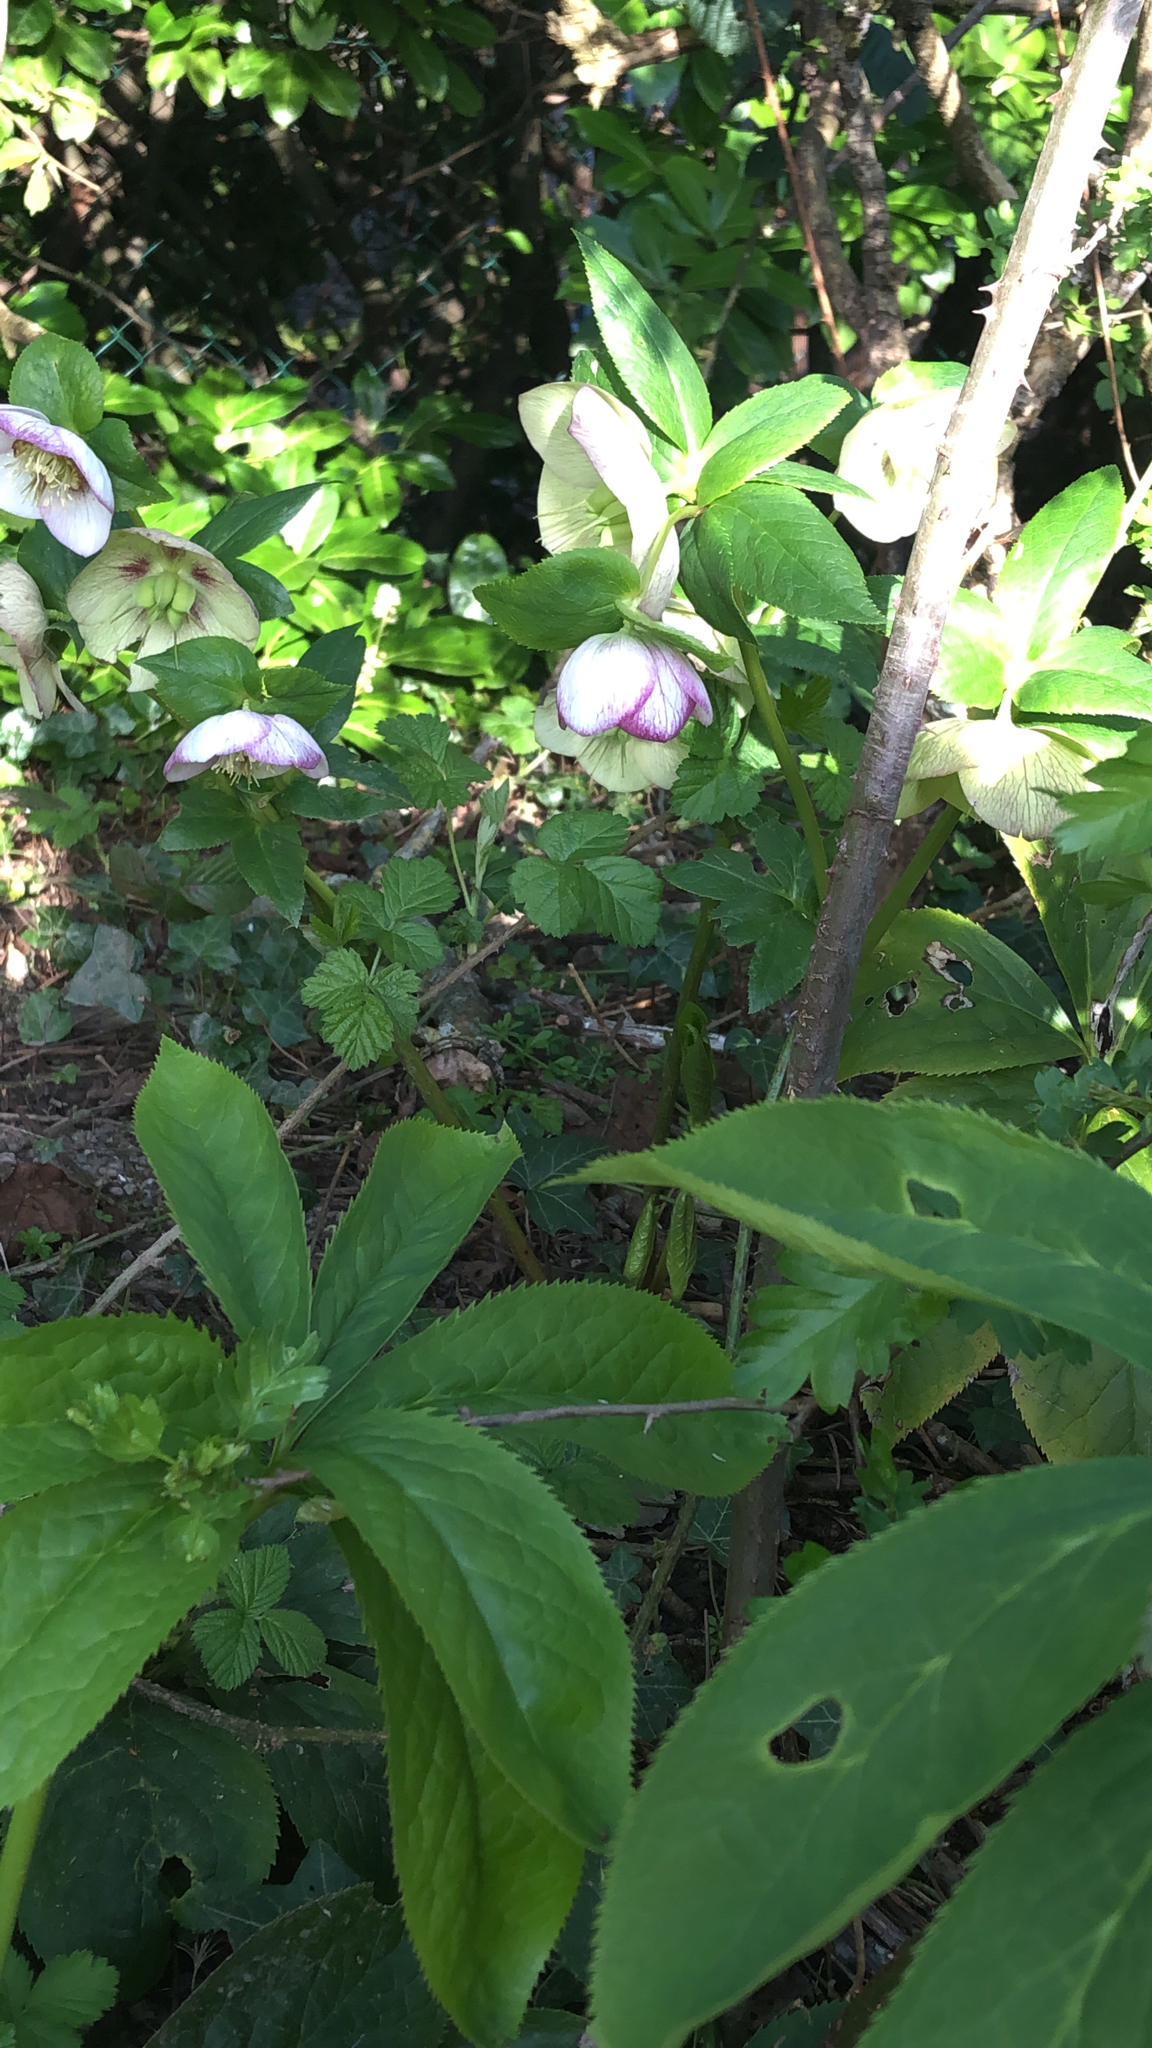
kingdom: Plantae
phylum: Tracheophyta
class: Magnoliopsida
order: Ranunculales
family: Ranunculaceae
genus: Helleborus
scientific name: Helleborus orientalis
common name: Lenten-rose
